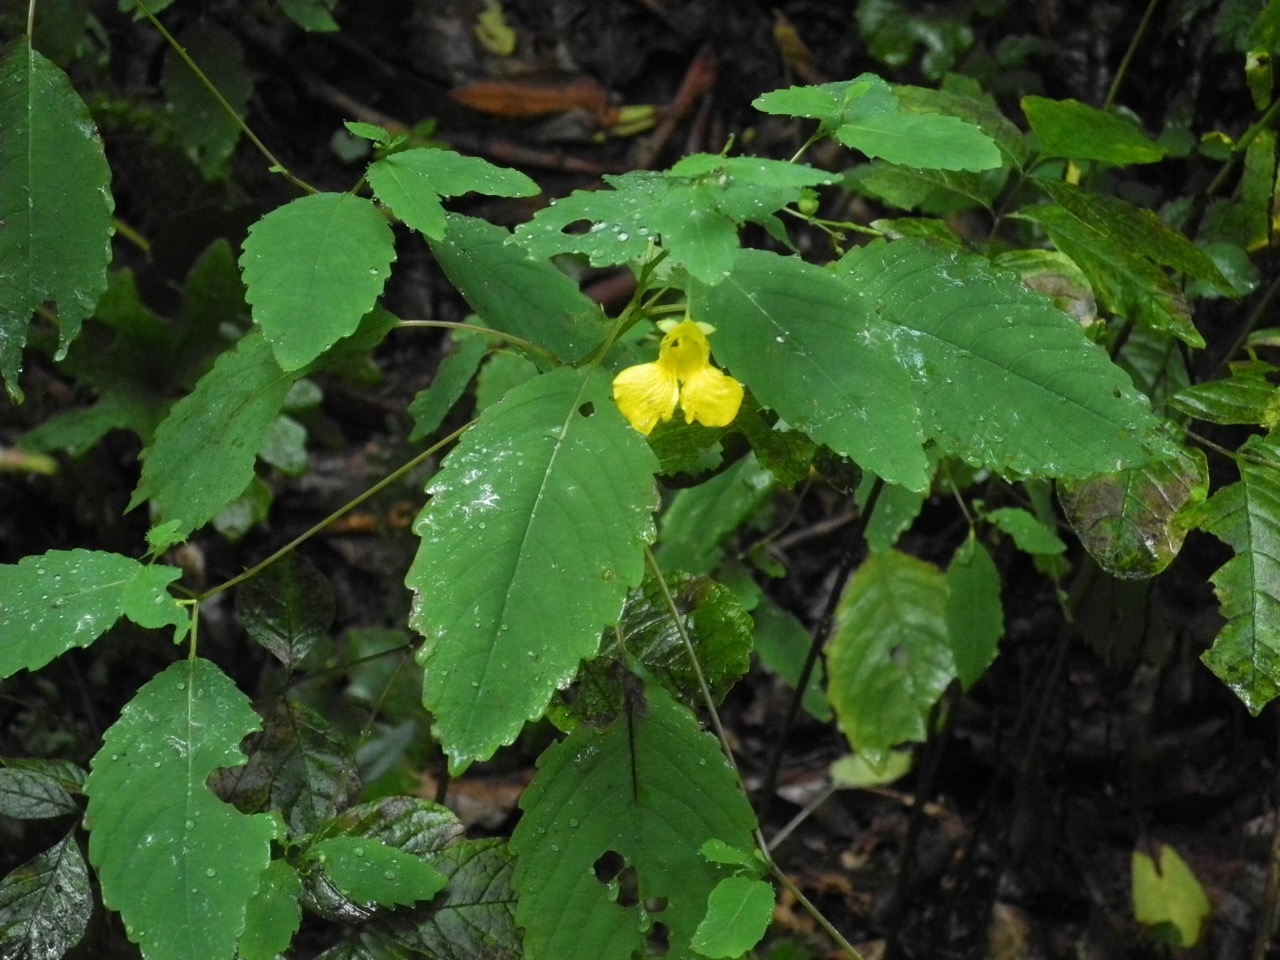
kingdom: Plantae
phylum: Tracheophyta
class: Magnoliopsida
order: Ericales
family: Balsaminaceae
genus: Impatiens
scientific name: Impatiens pallida
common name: Pale snapweed
